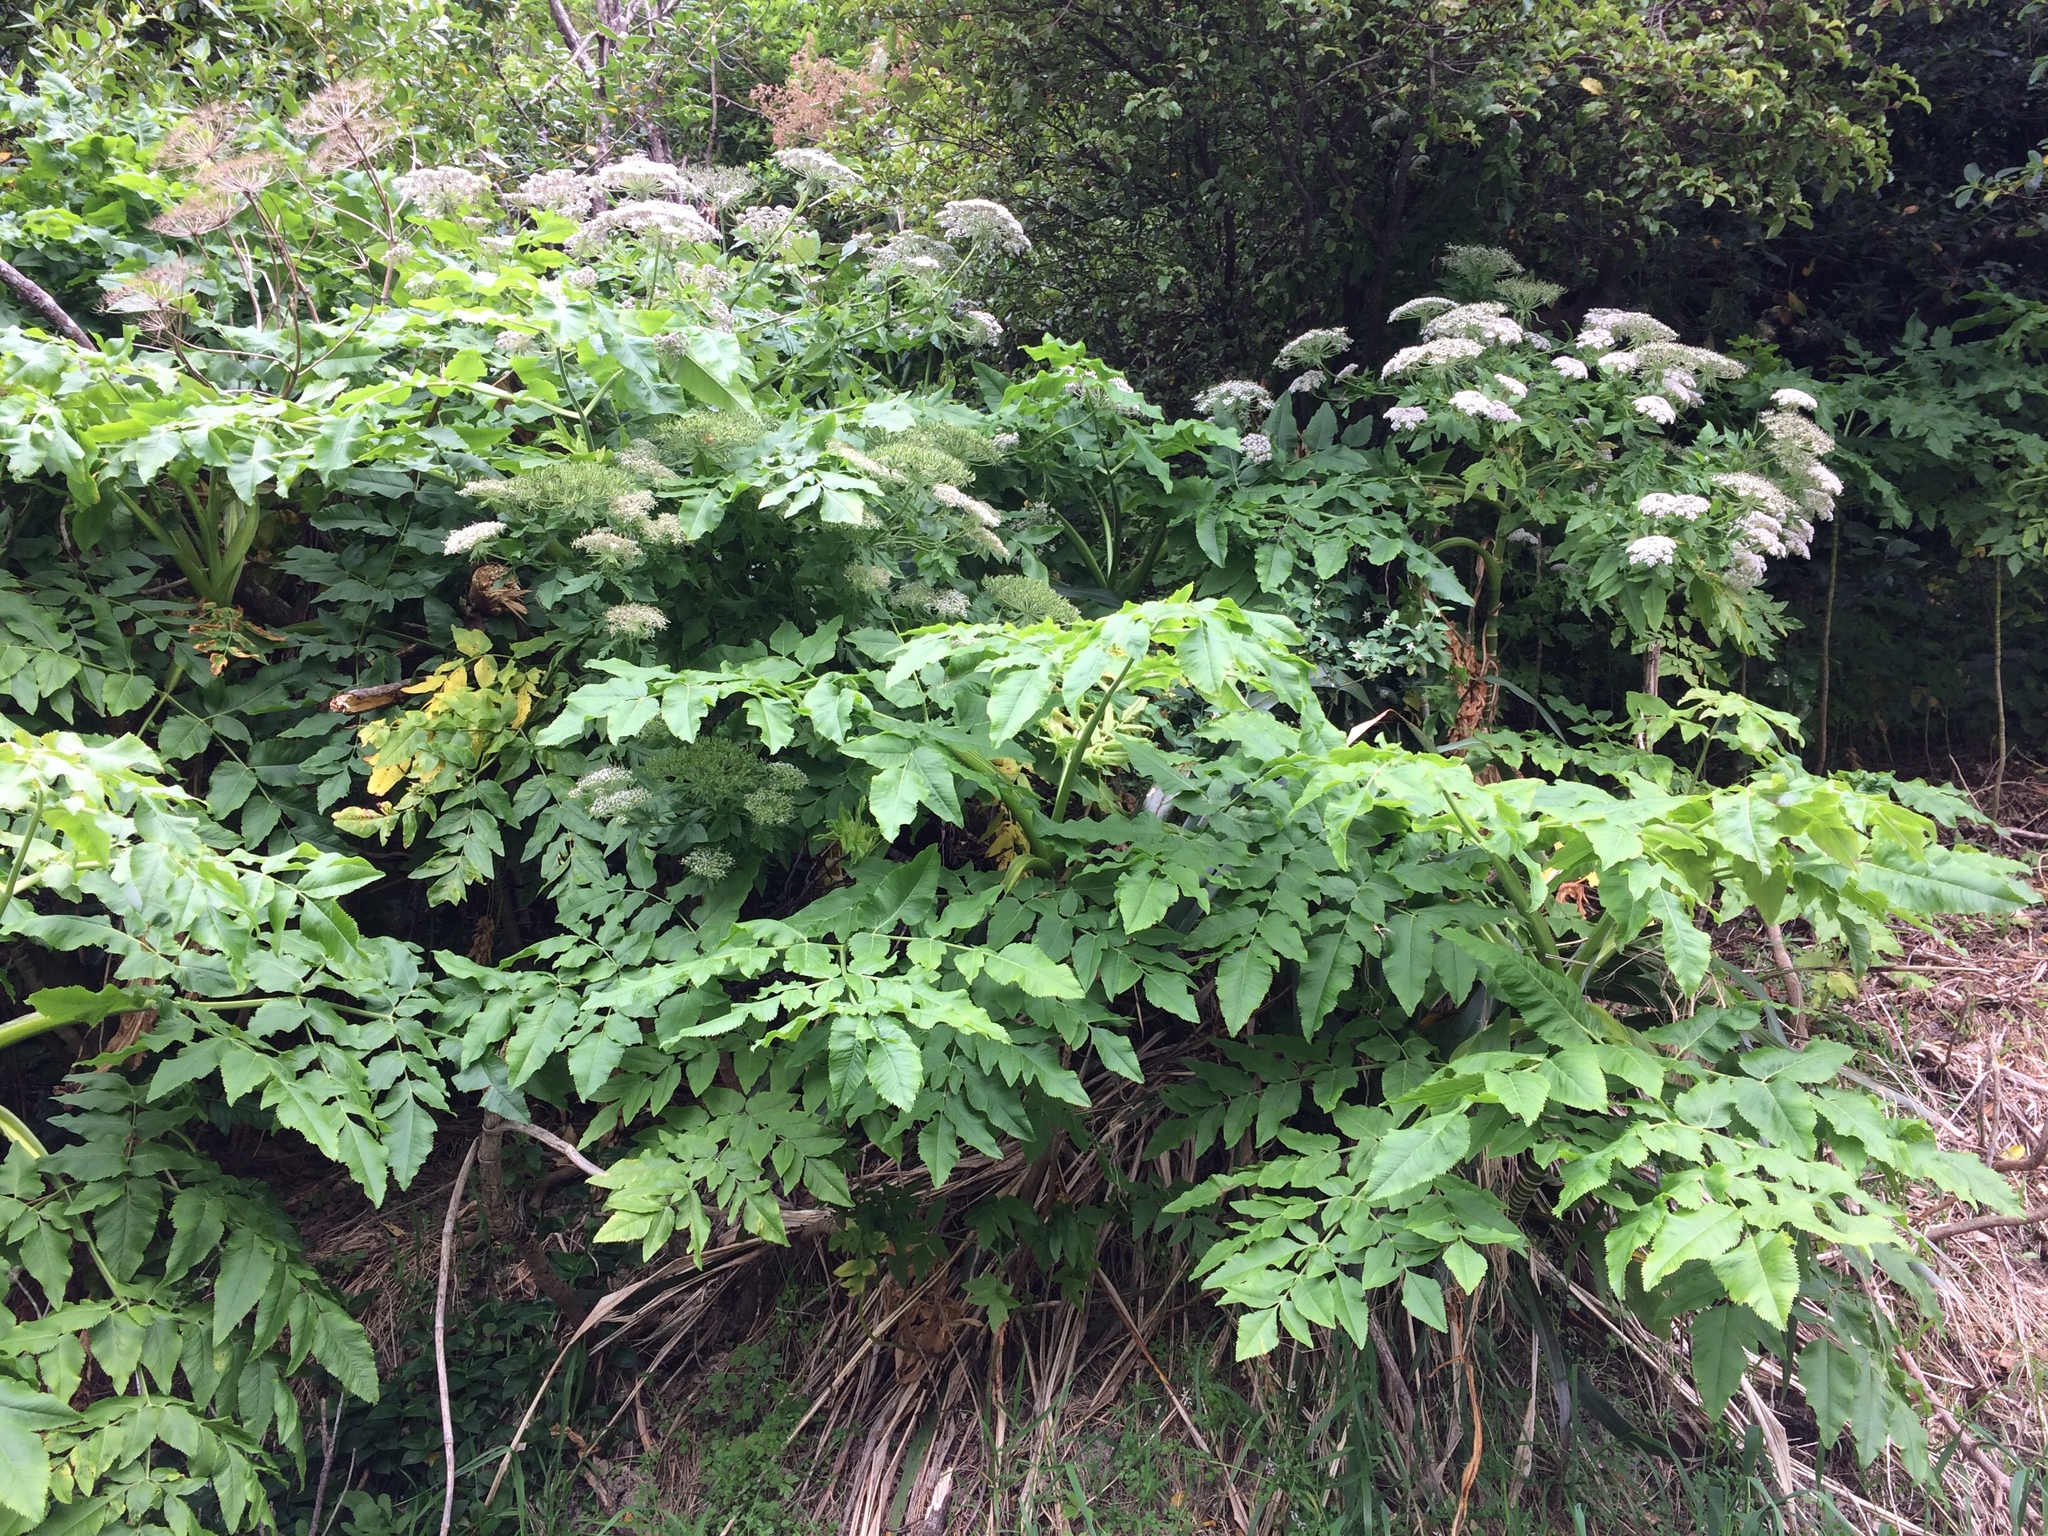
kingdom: Plantae
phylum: Tracheophyta
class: Magnoliopsida
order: Apiales
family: Apiaceae
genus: Daucus
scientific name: Daucus decipiens
